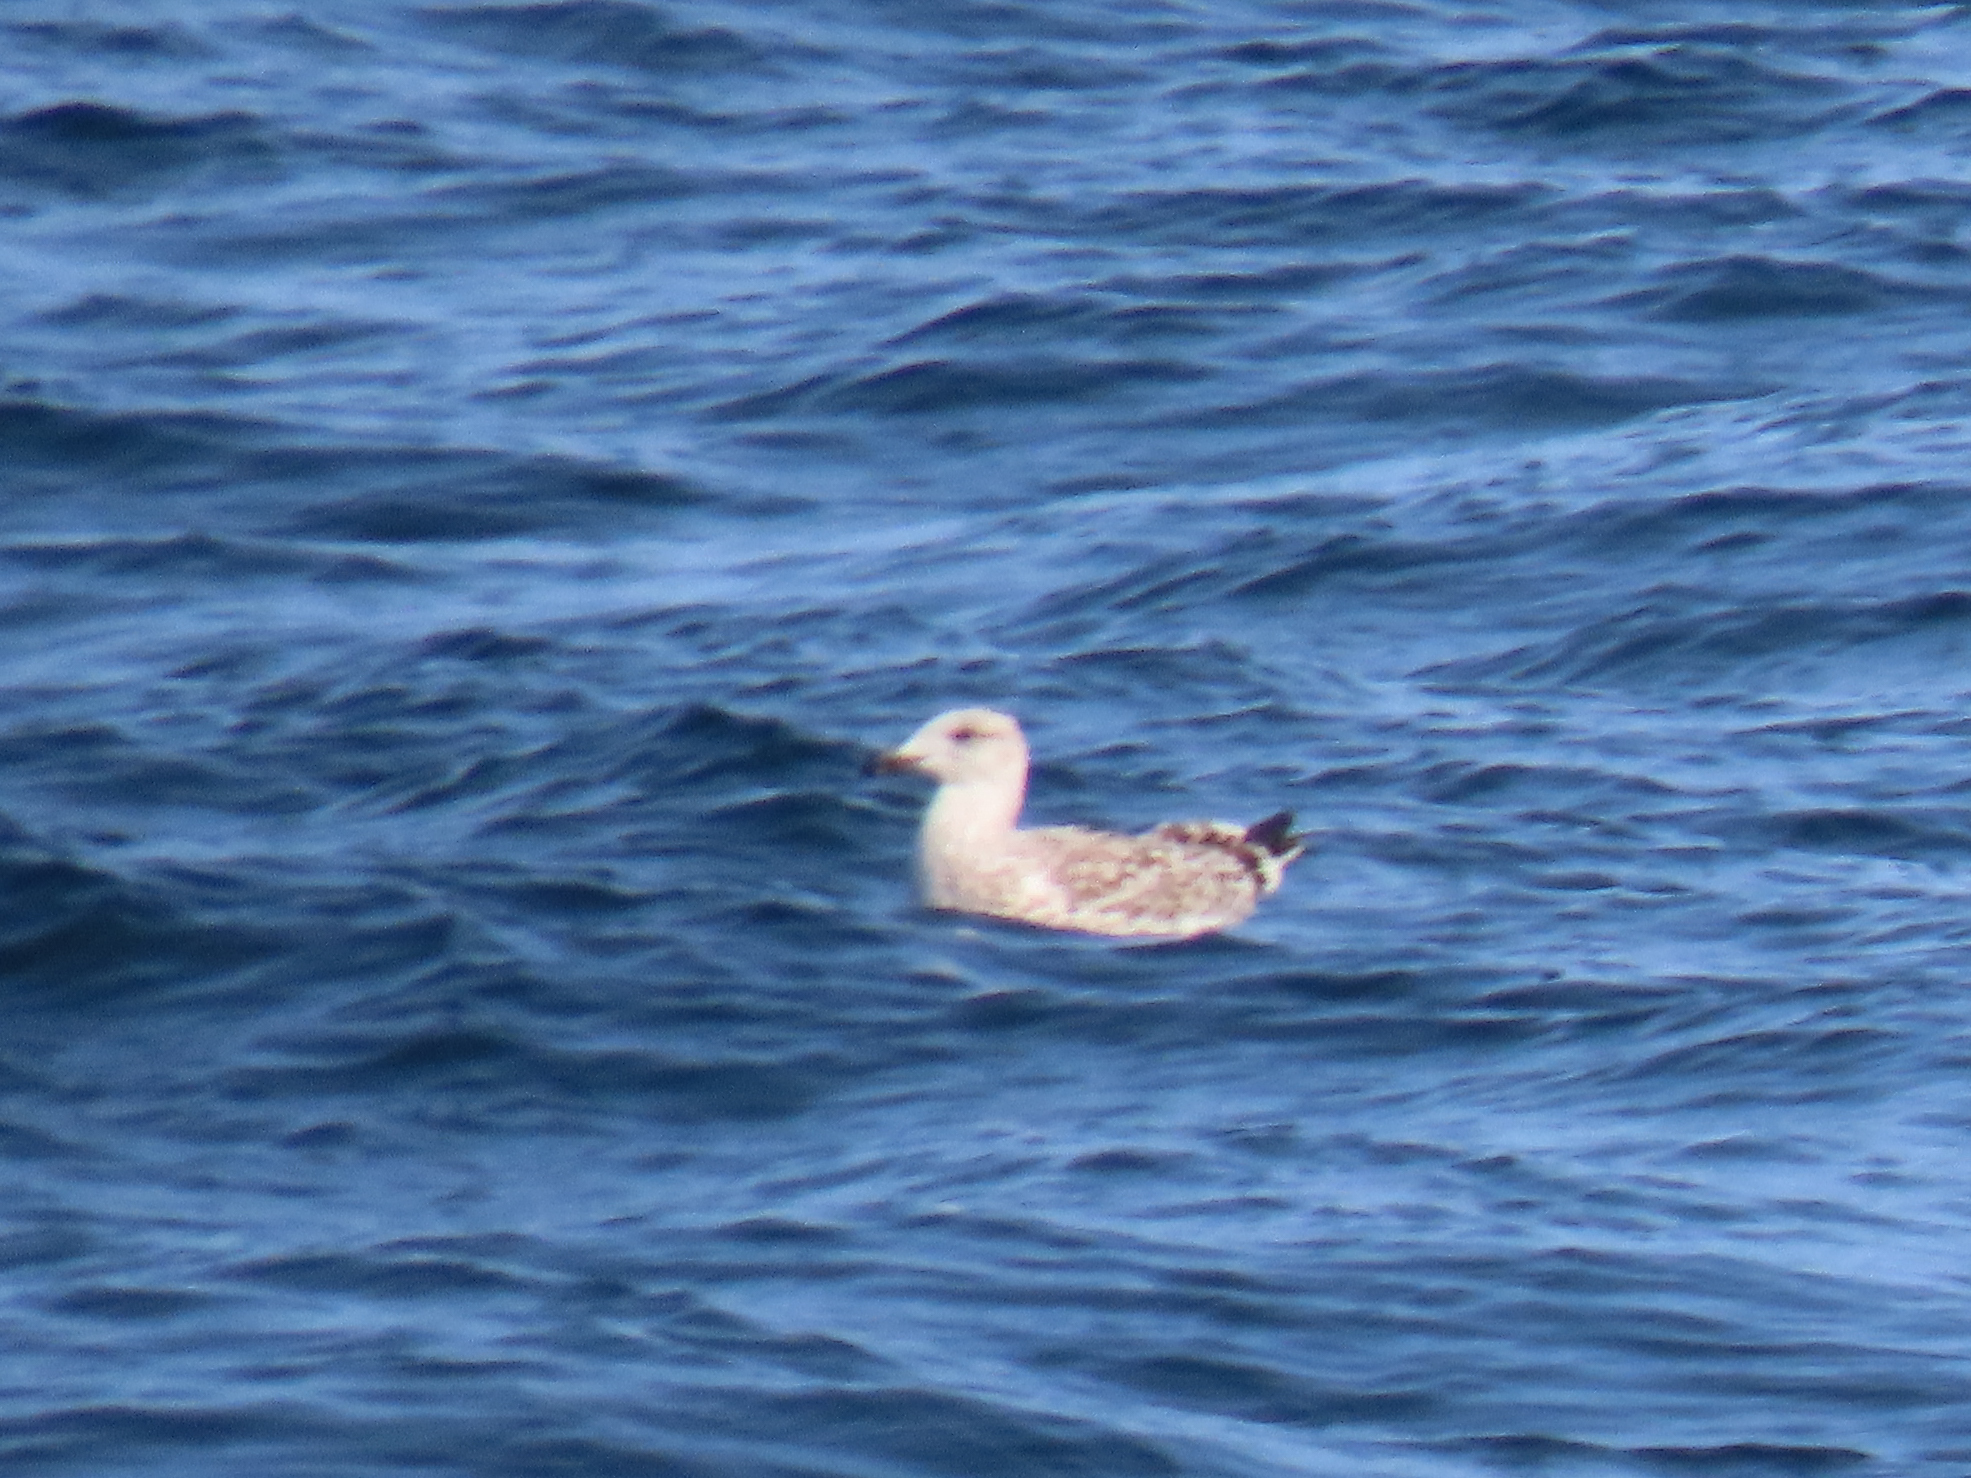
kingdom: Animalia
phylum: Chordata
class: Aves
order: Charadriiformes
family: Laridae
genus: Larus
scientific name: Larus marinus
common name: Great black-backed gull
